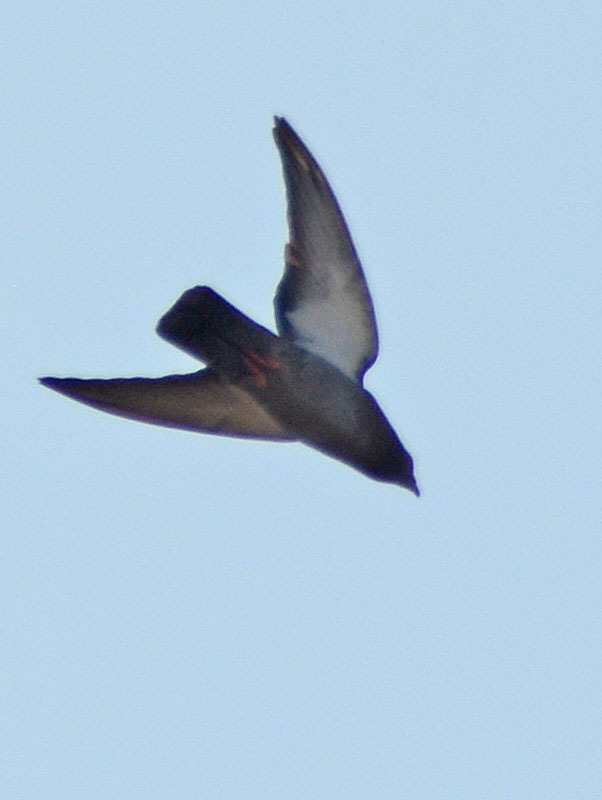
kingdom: Animalia
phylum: Chordata
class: Aves
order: Columbiformes
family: Columbidae
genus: Columba
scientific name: Columba livia
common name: Rock pigeon
